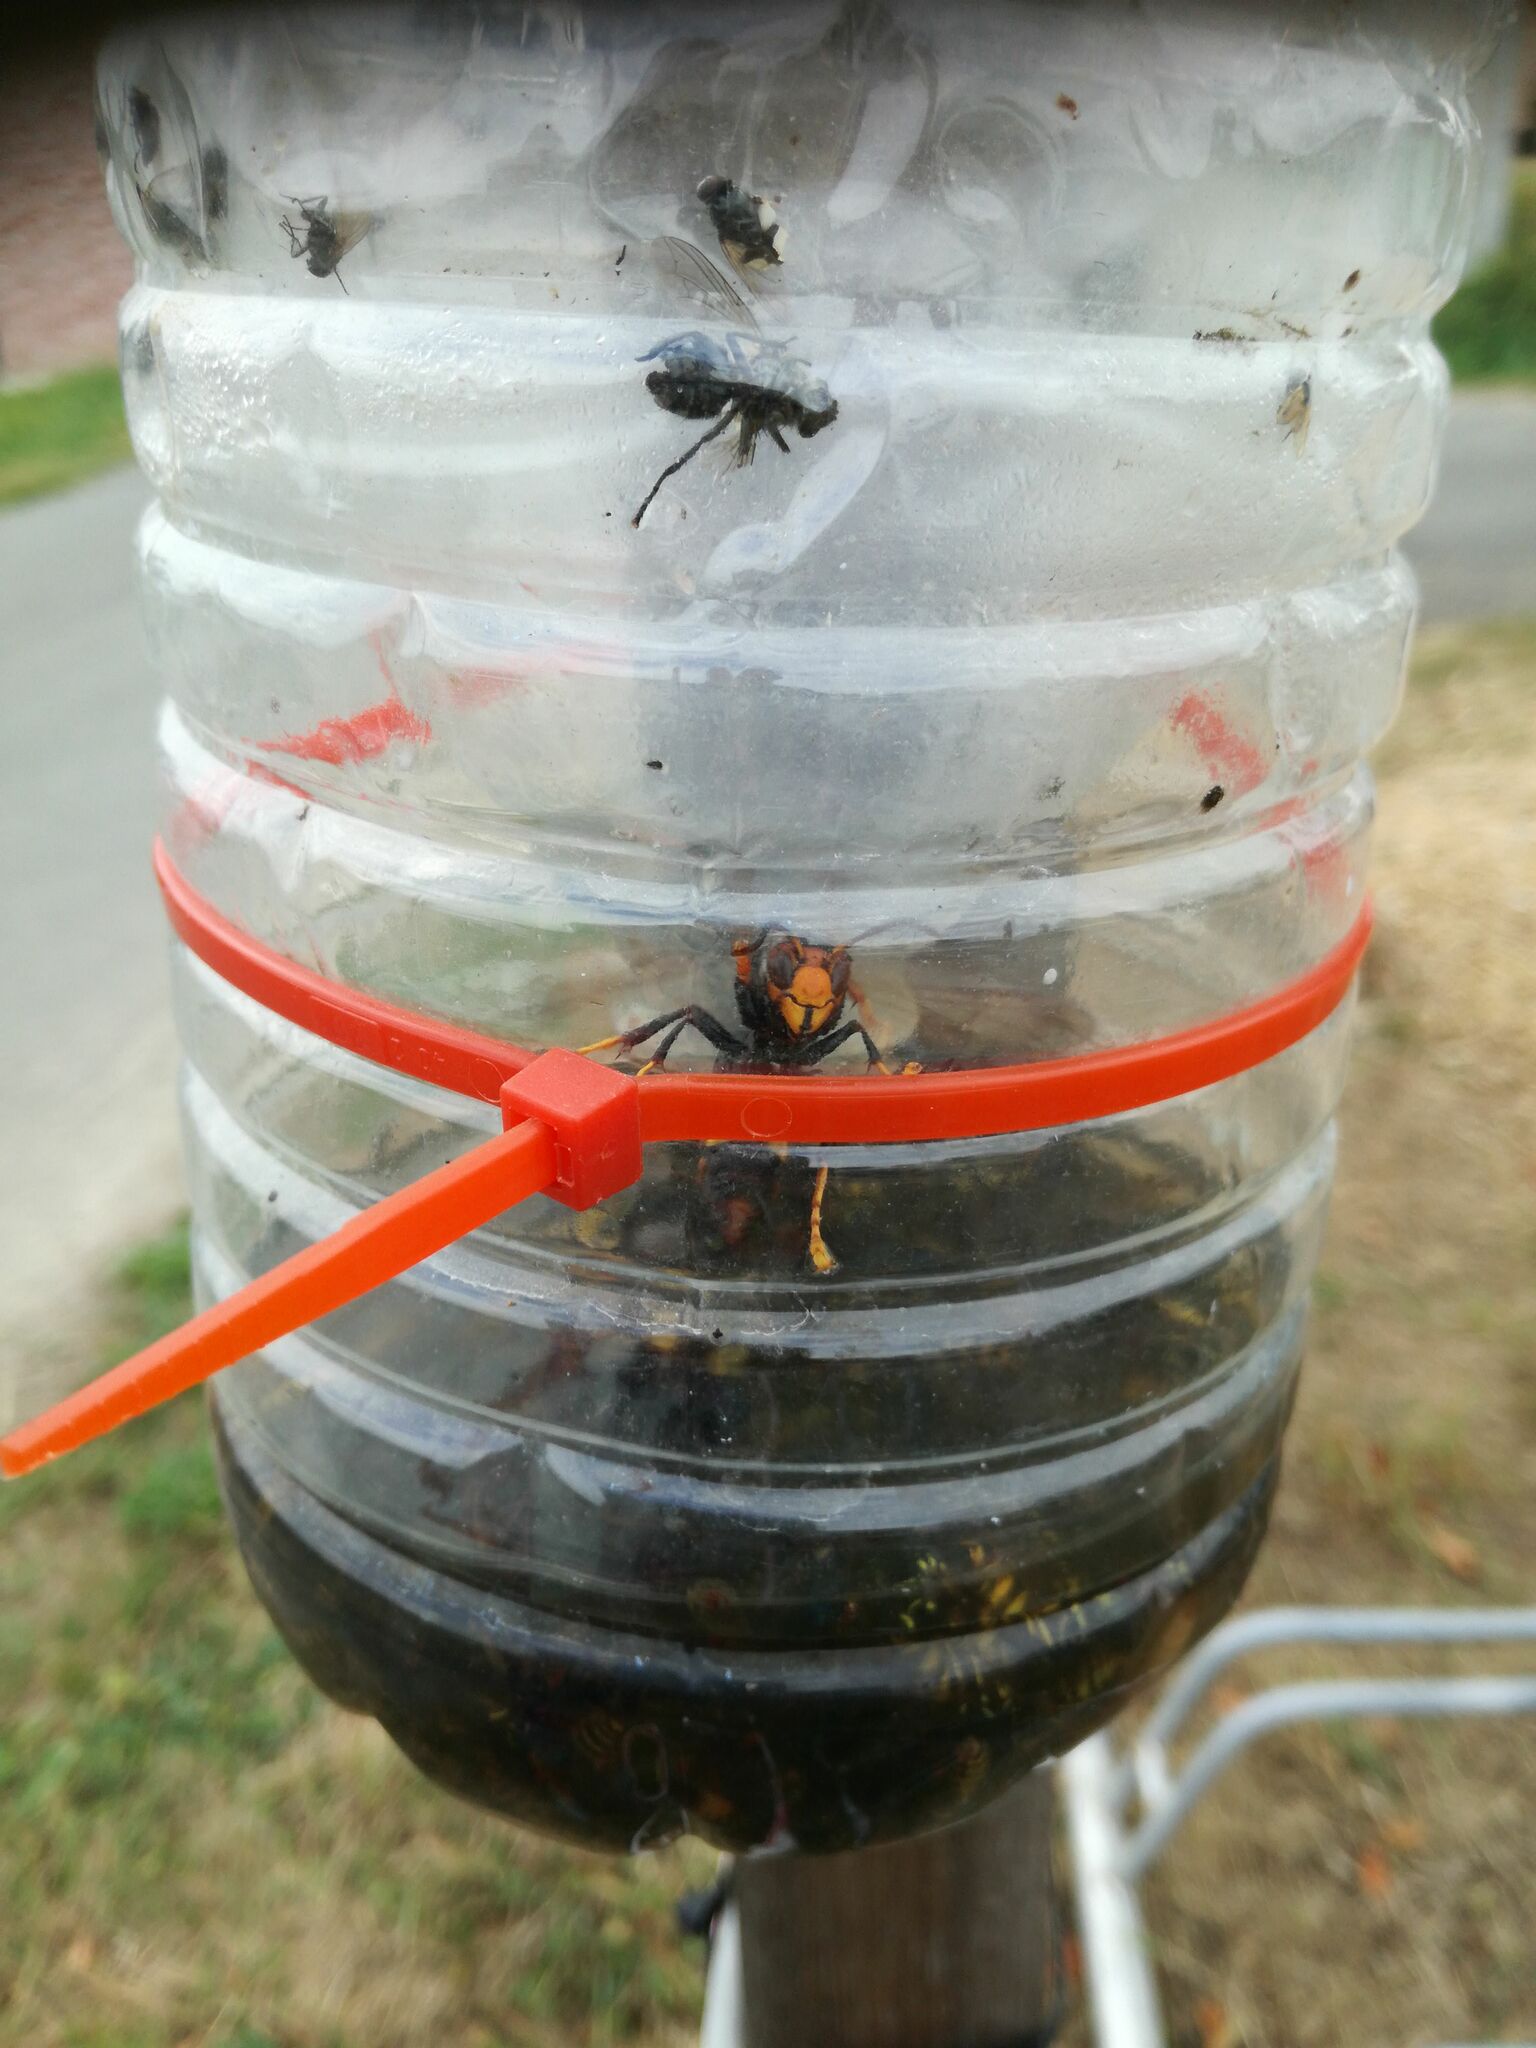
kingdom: Animalia
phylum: Arthropoda
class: Insecta
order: Hymenoptera
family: Vespidae
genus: Vespa
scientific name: Vespa velutina
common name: Asian hornet
